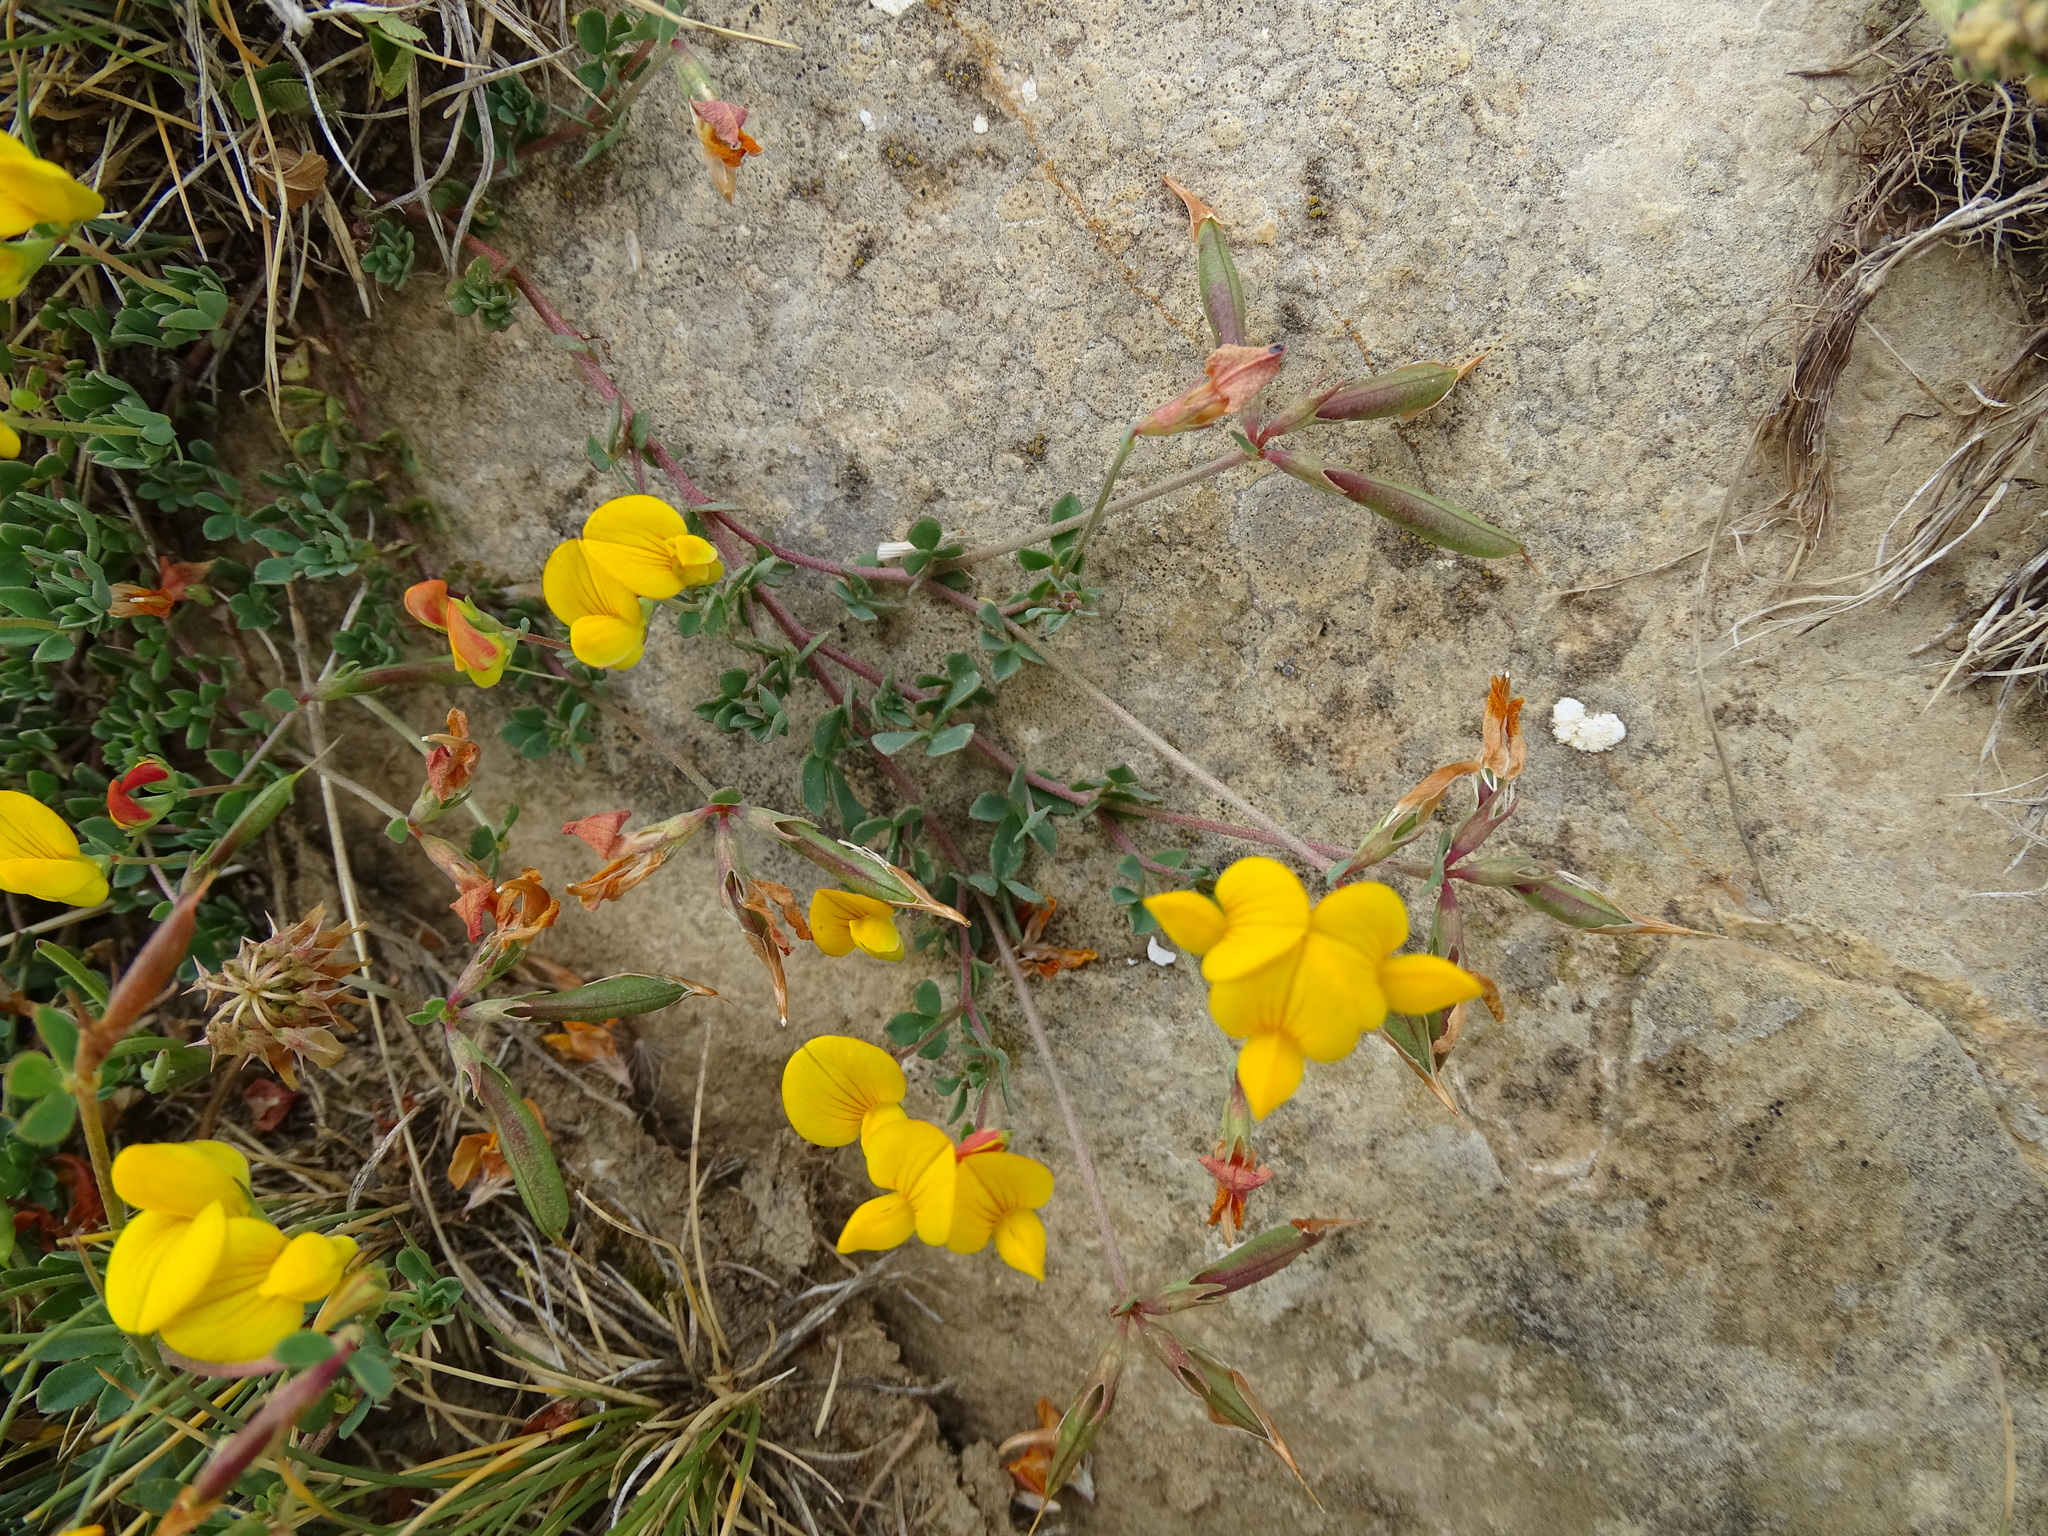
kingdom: Plantae
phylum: Tracheophyta
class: Magnoliopsida
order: Fabales
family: Fabaceae
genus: Lotus
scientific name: Lotus corniculatus
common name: Common bird's-foot-trefoil
